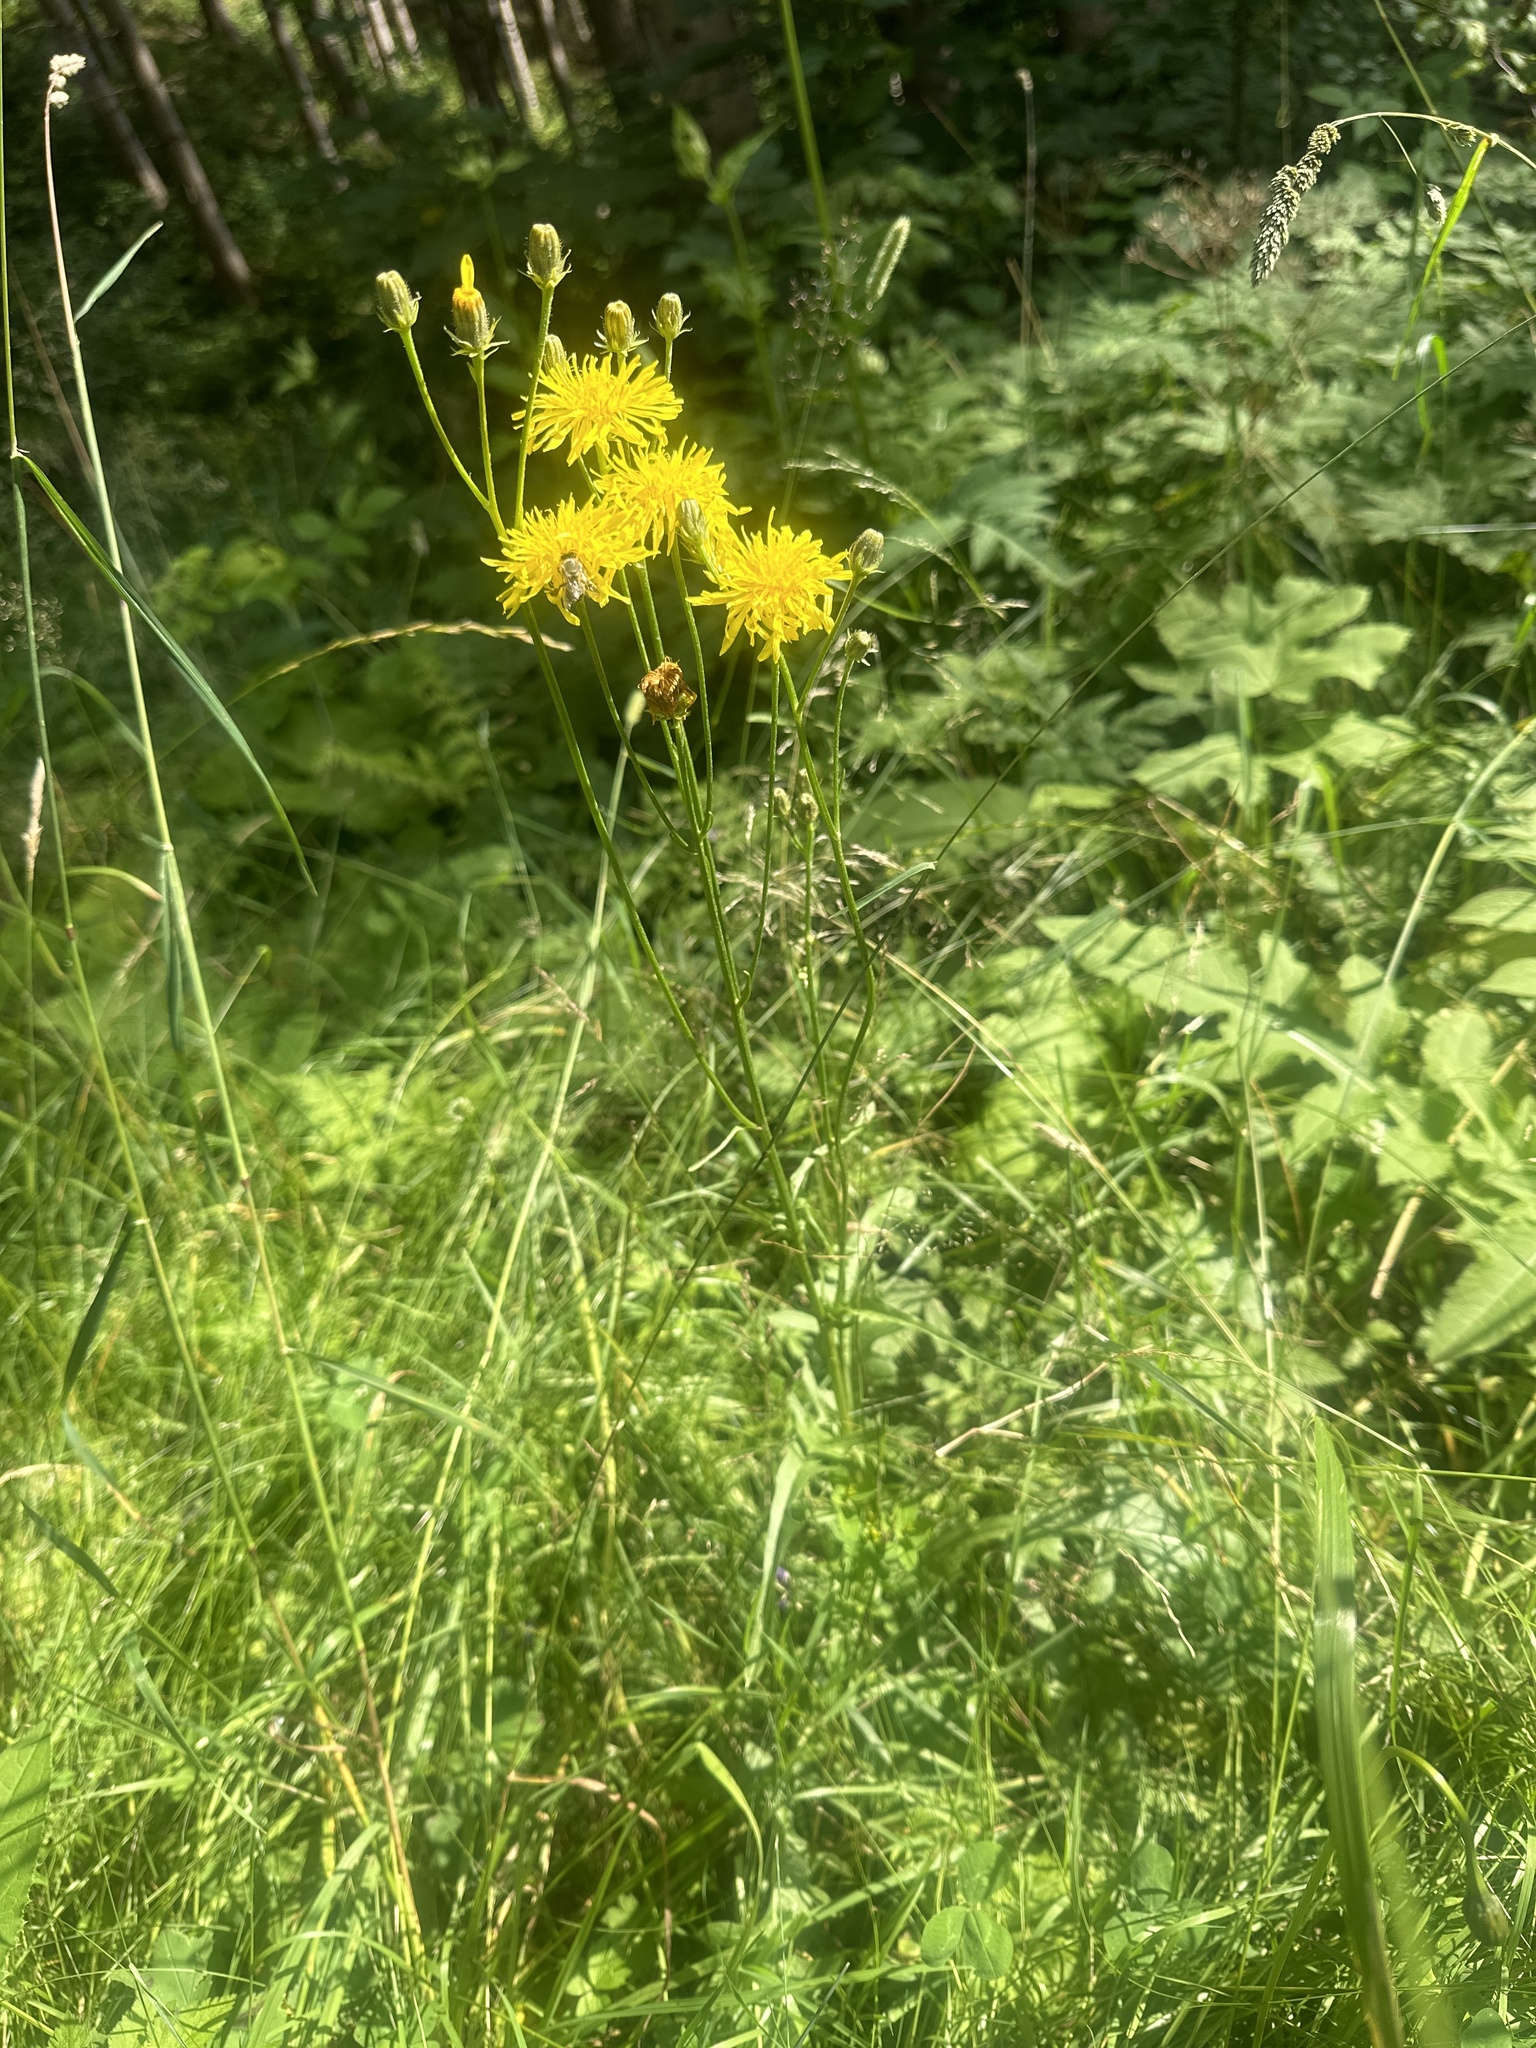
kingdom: Plantae
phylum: Tracheophyta
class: Magnoliopsida
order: Asterales
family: Asteraceae
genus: Crepis
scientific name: Crepis biennis
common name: Rough hawk's-beard
